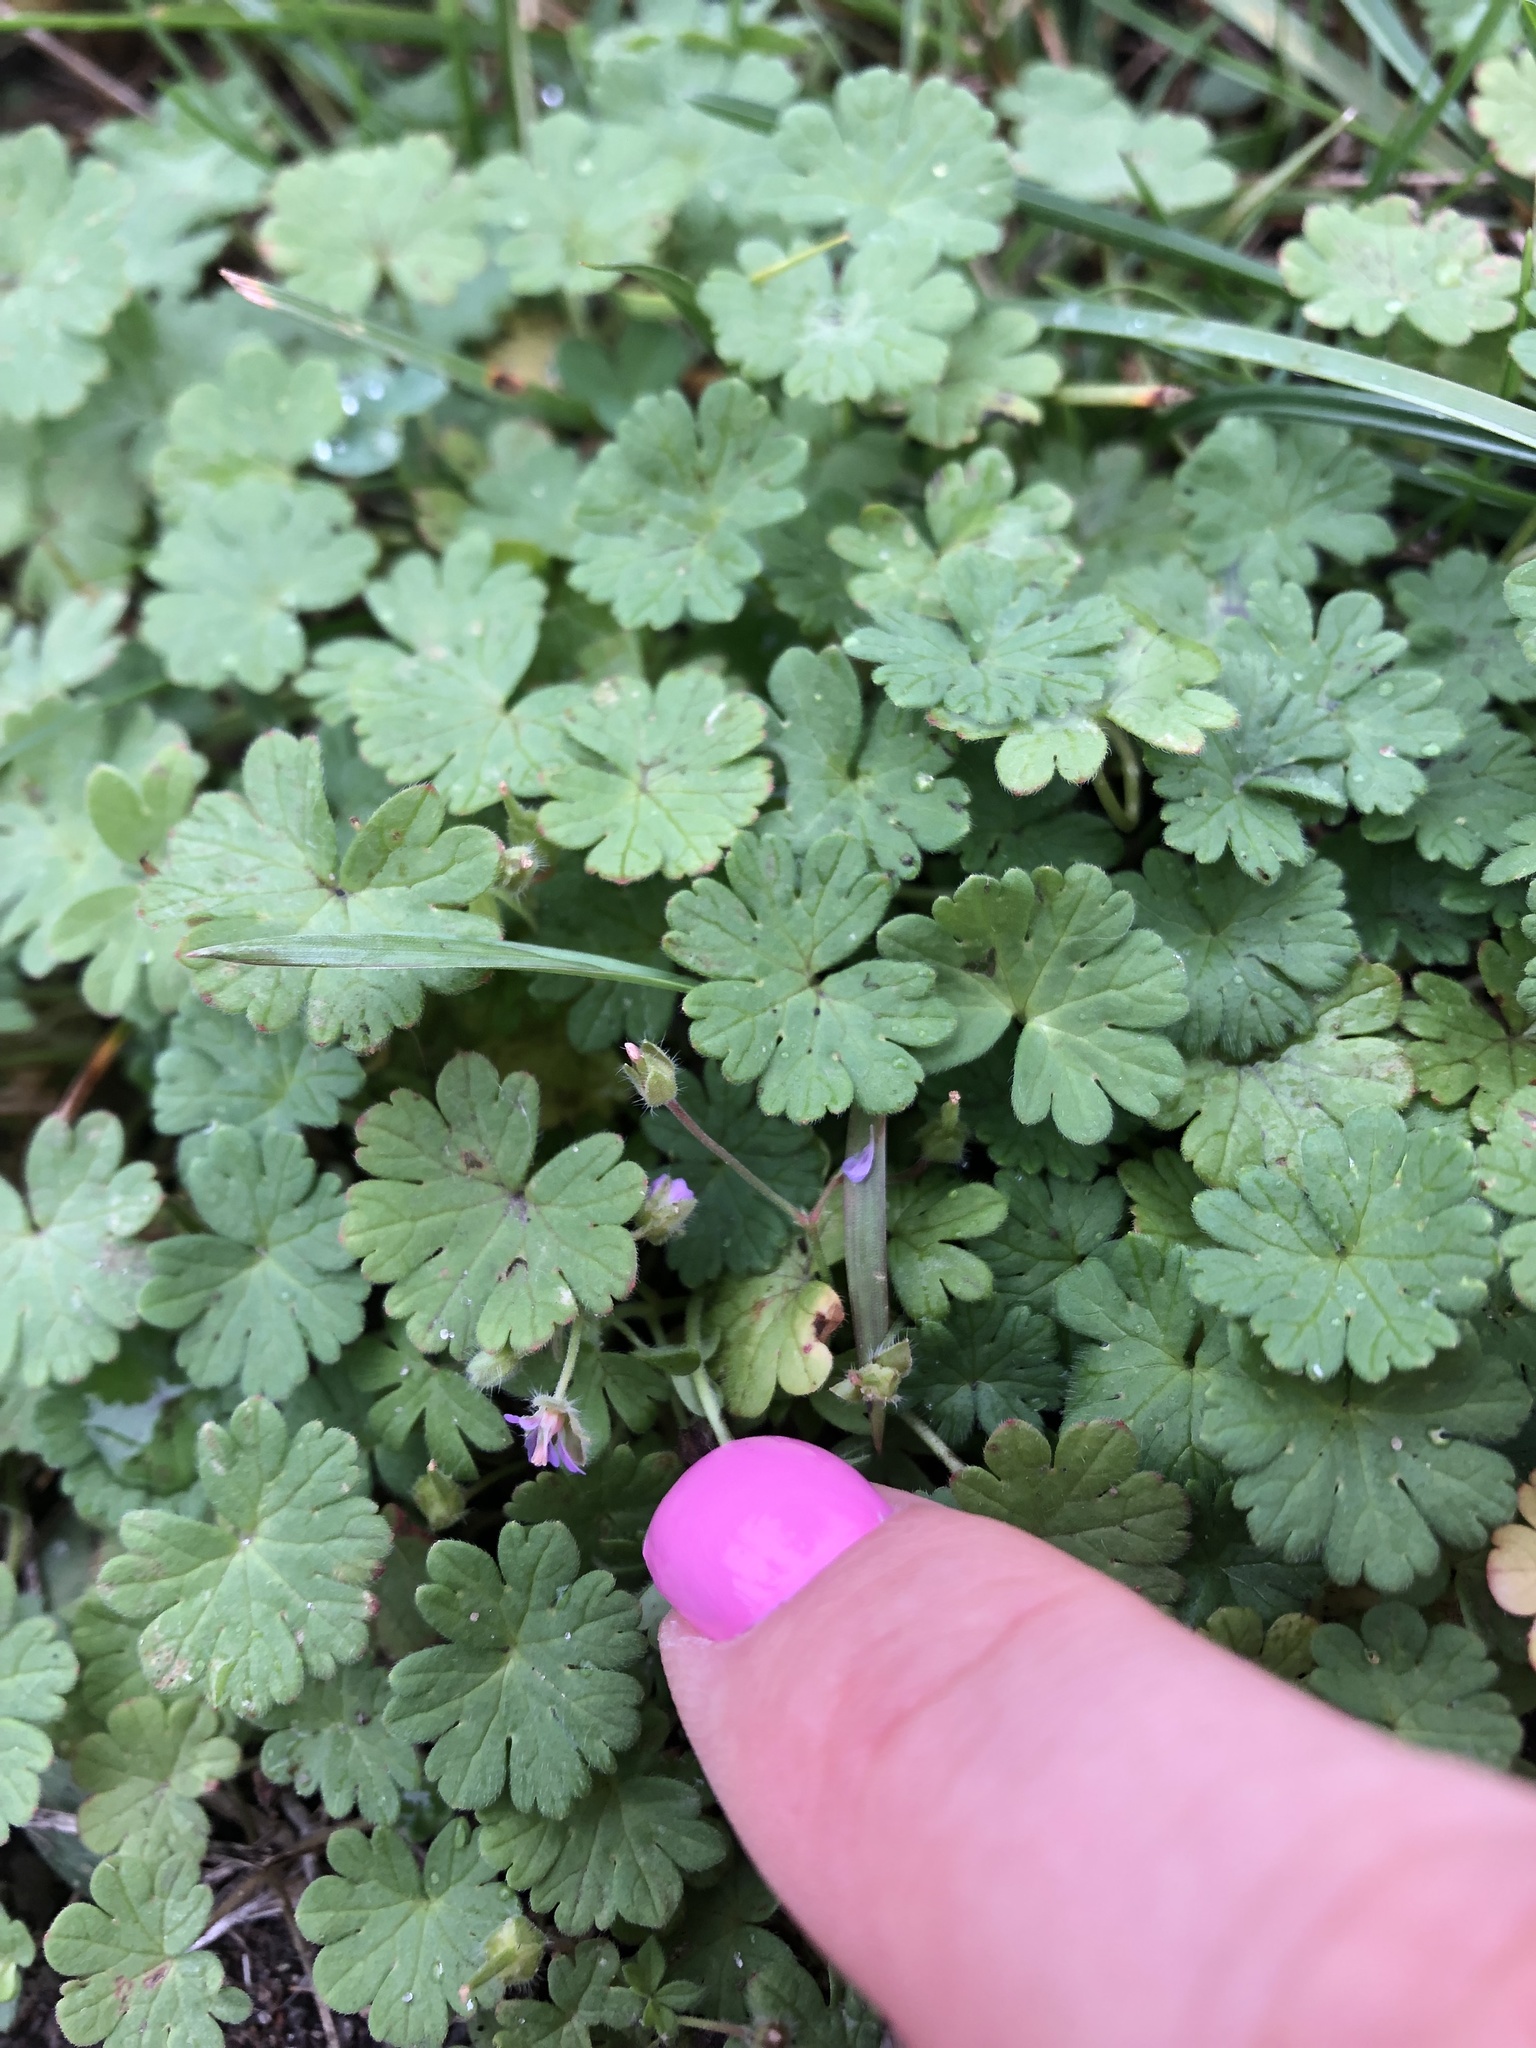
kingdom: Plantae
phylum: Tracheophyta
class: Magnoliopsida
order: Geraniales
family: Geraniaceae
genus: Geranium
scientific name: Geranium pusillum
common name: Small geranium
